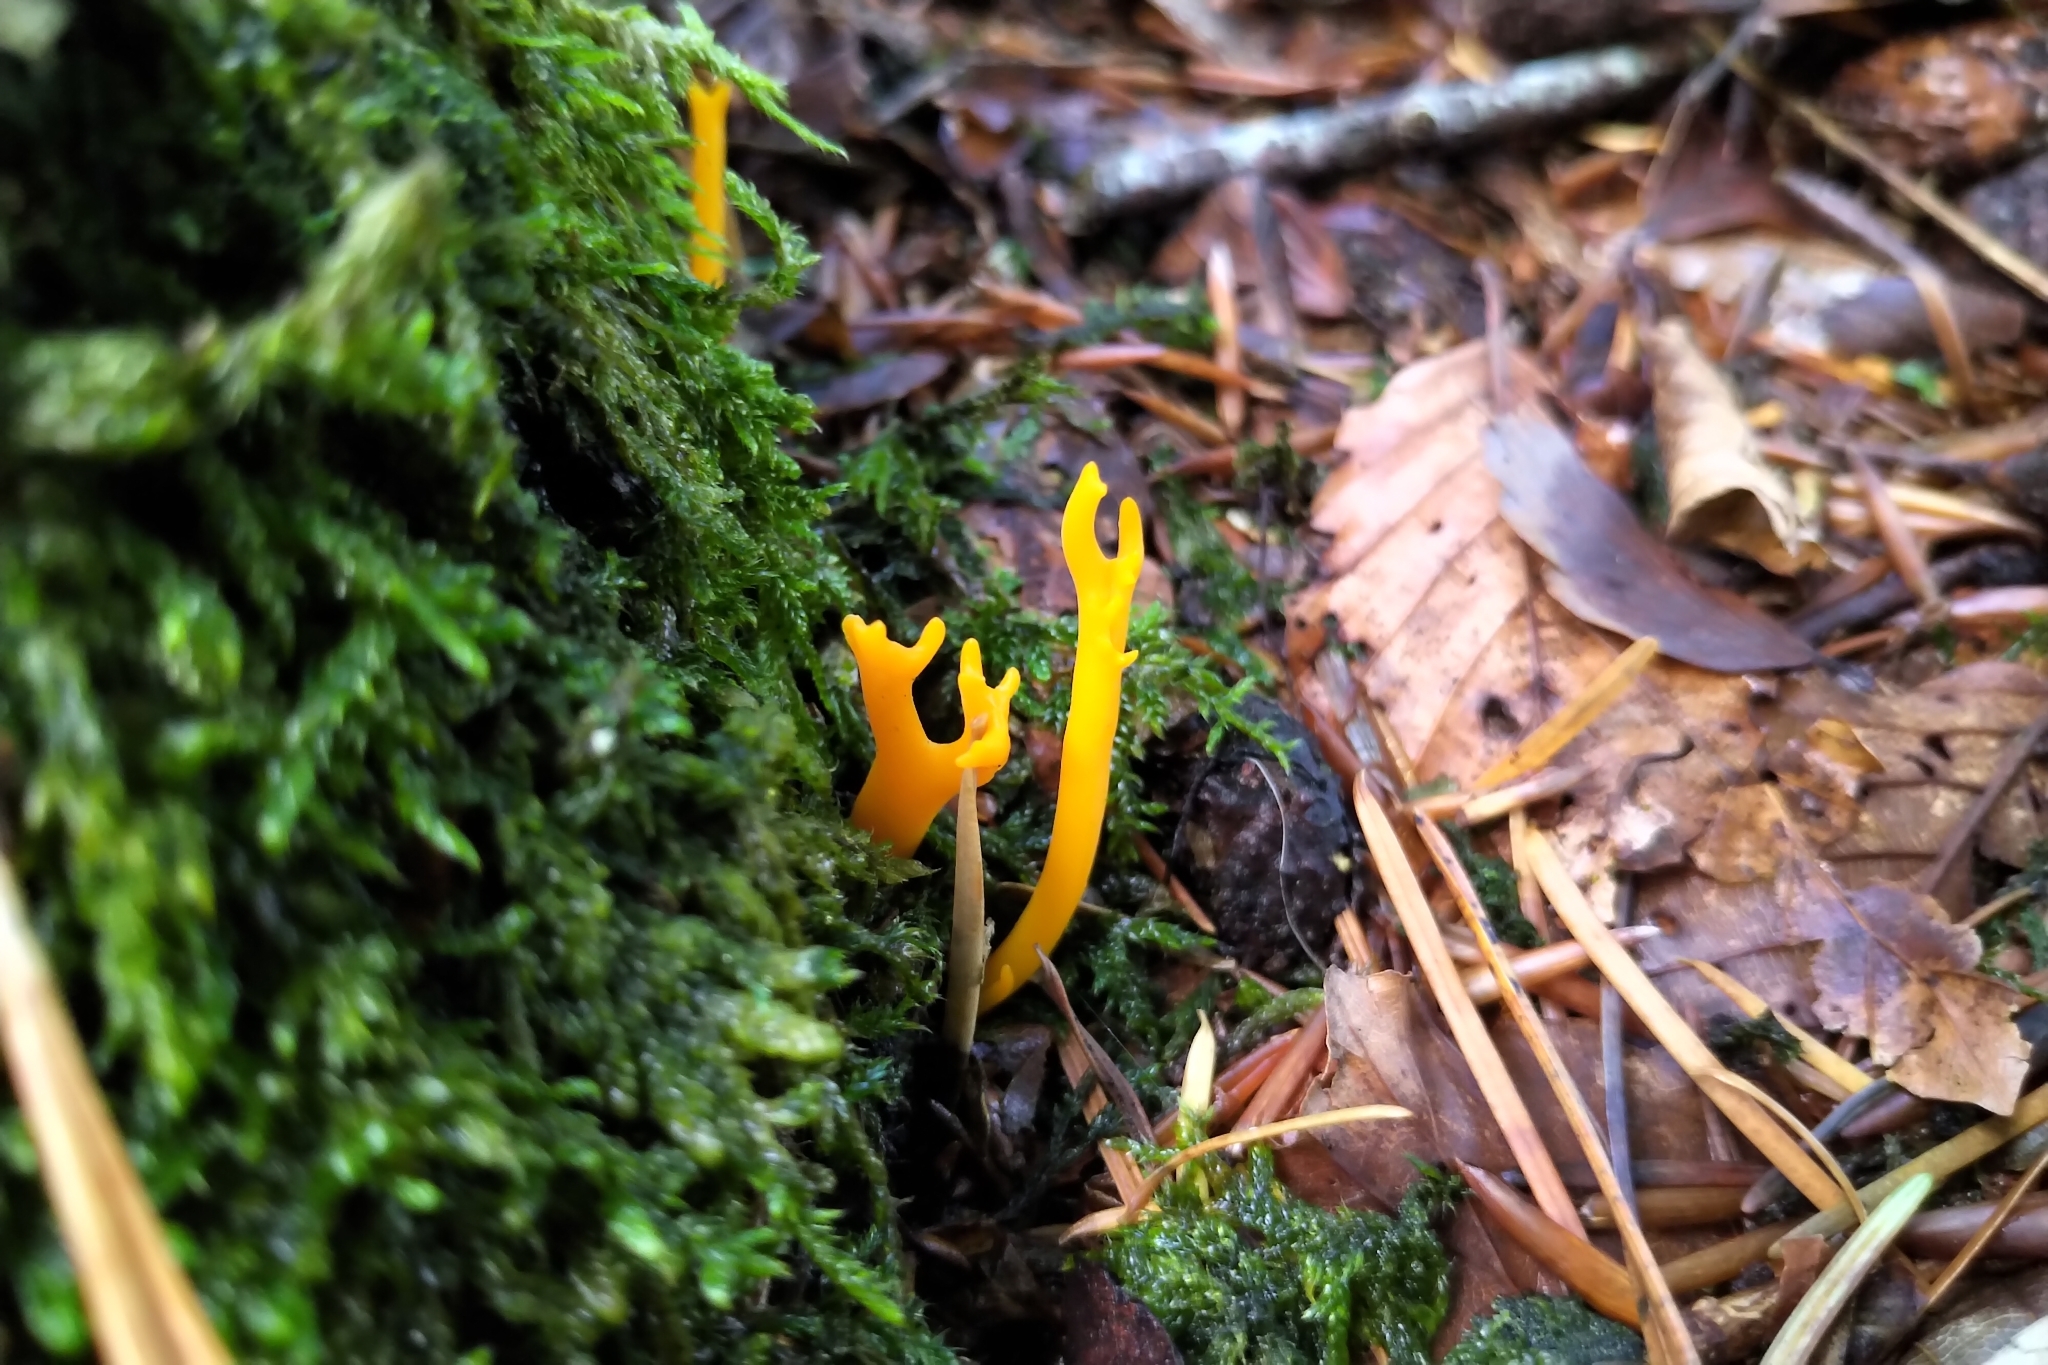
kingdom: Fungi
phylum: Basidiomycota
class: Dacrymycetes
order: Dacrymycetales
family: Dacrymycetaceae
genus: Calocera
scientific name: Calocera viscosa
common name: Yellow stagshorn
